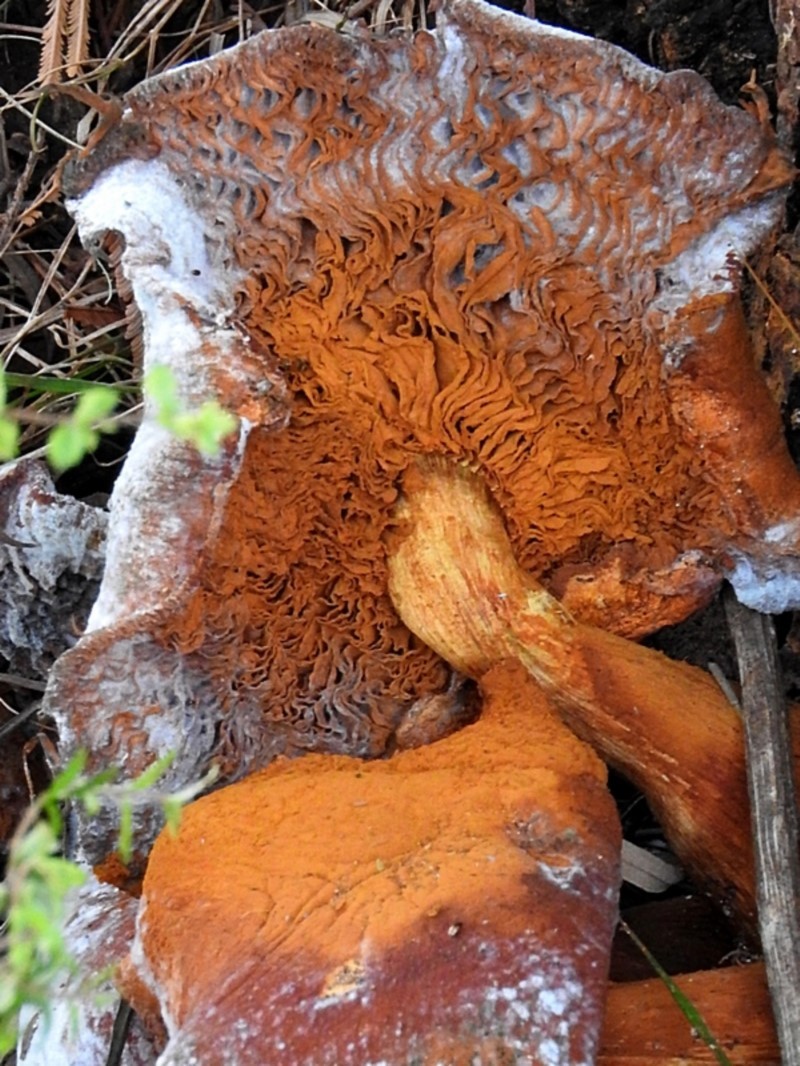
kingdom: Fungi
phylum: Basidiomycota
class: Agaricomycetes
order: Agaricales
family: Hymenogastraceae
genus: Gymnopilus
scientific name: Gymnopilus junonius
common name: Spectacular rustgill
